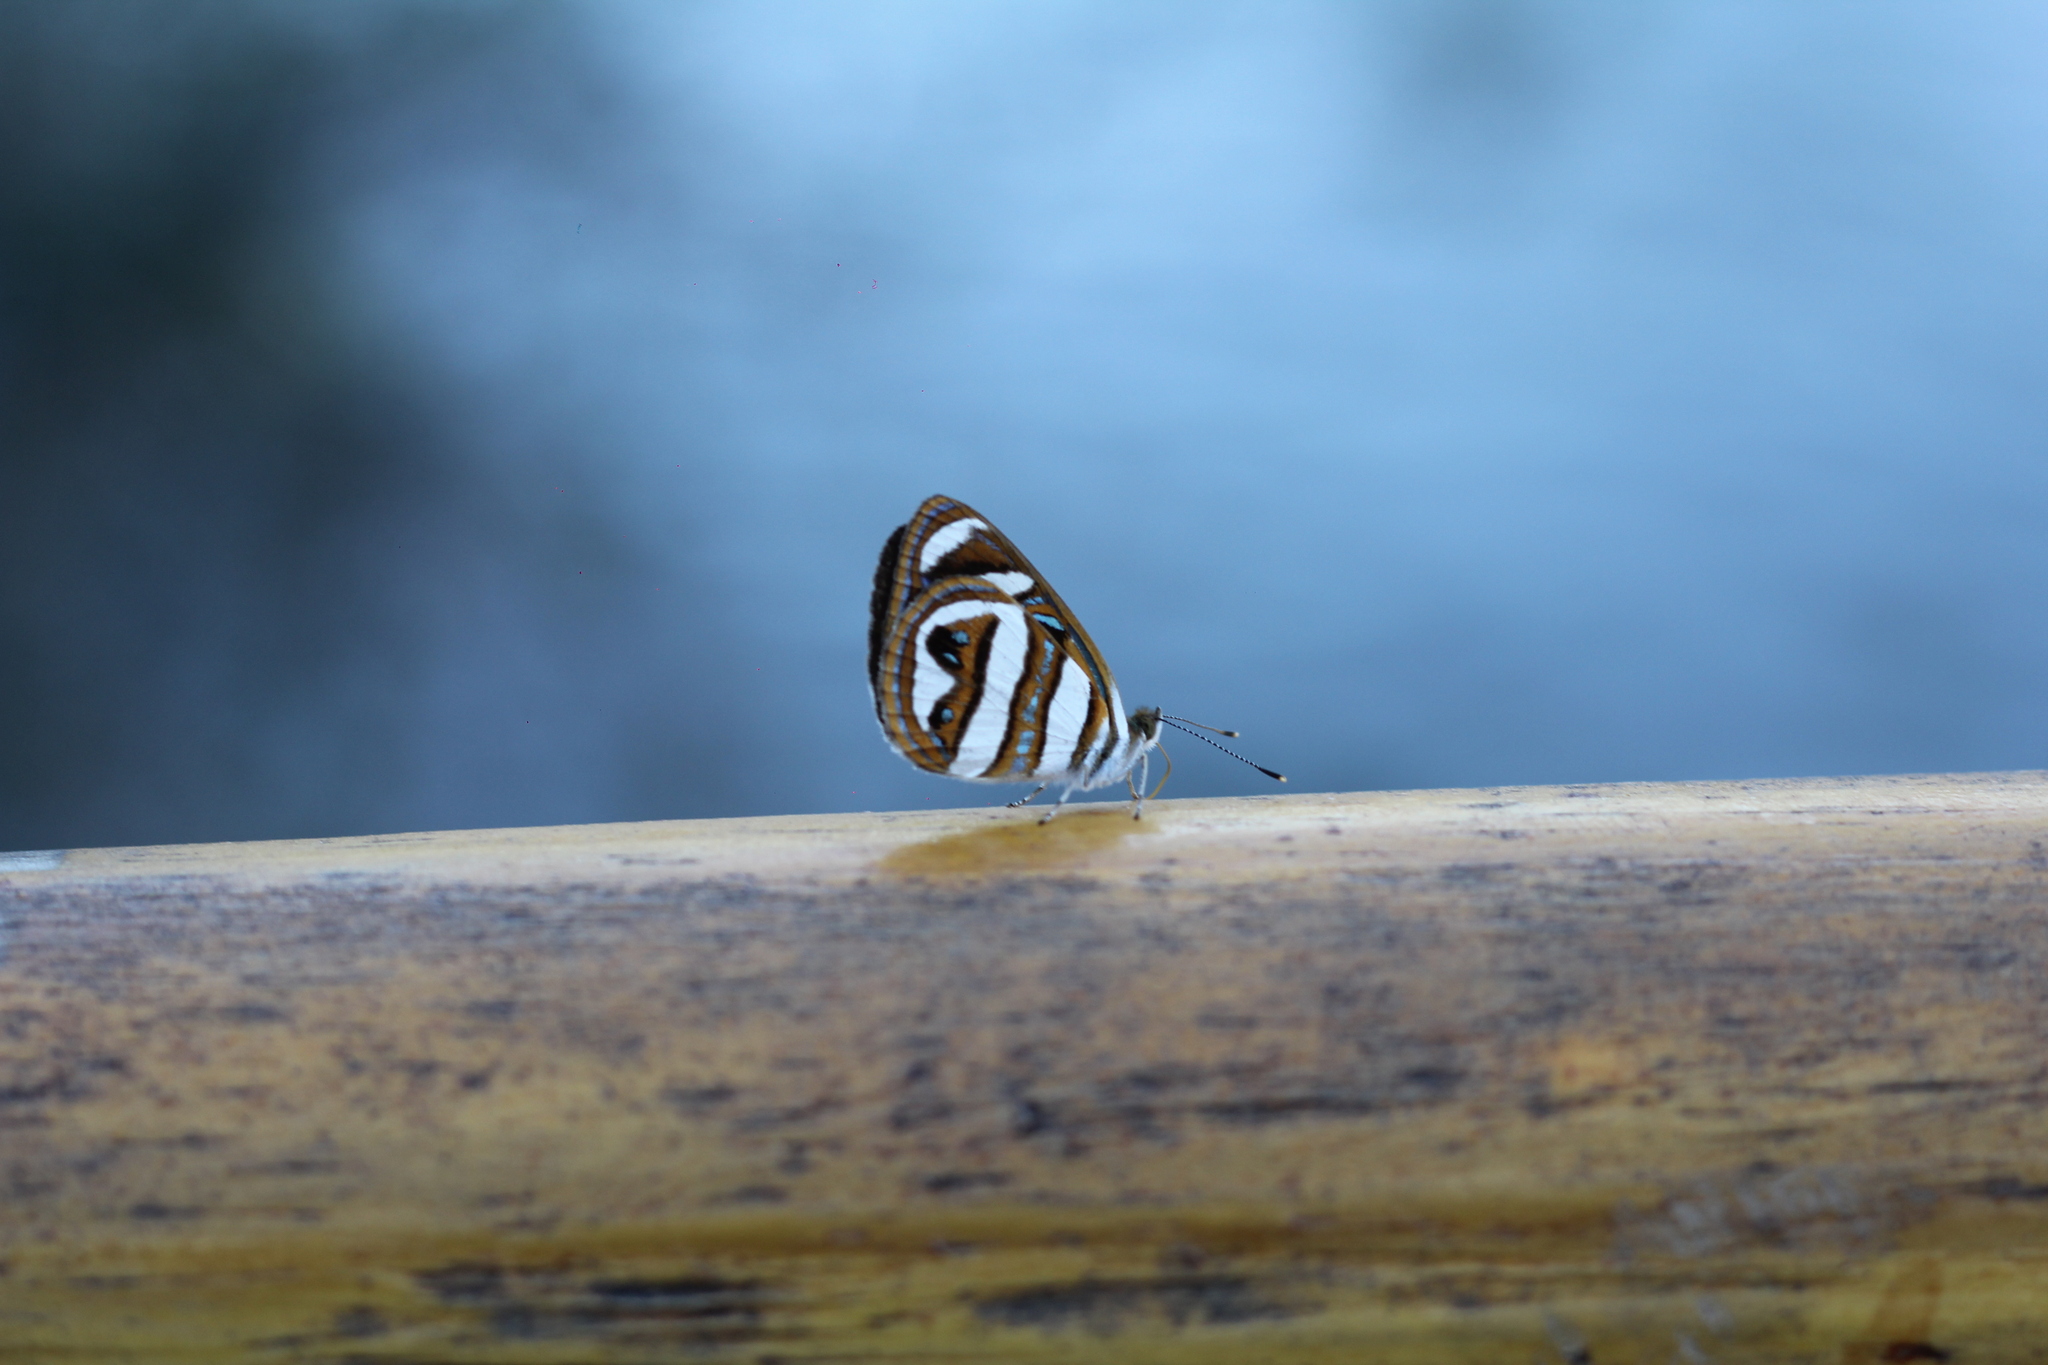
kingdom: Animalia
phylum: Arthropoda
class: Insecta
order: Lepidoptera
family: Nymphalidae
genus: Dynamine
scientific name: Dynamine artemisia
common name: Small-eyed sailor
